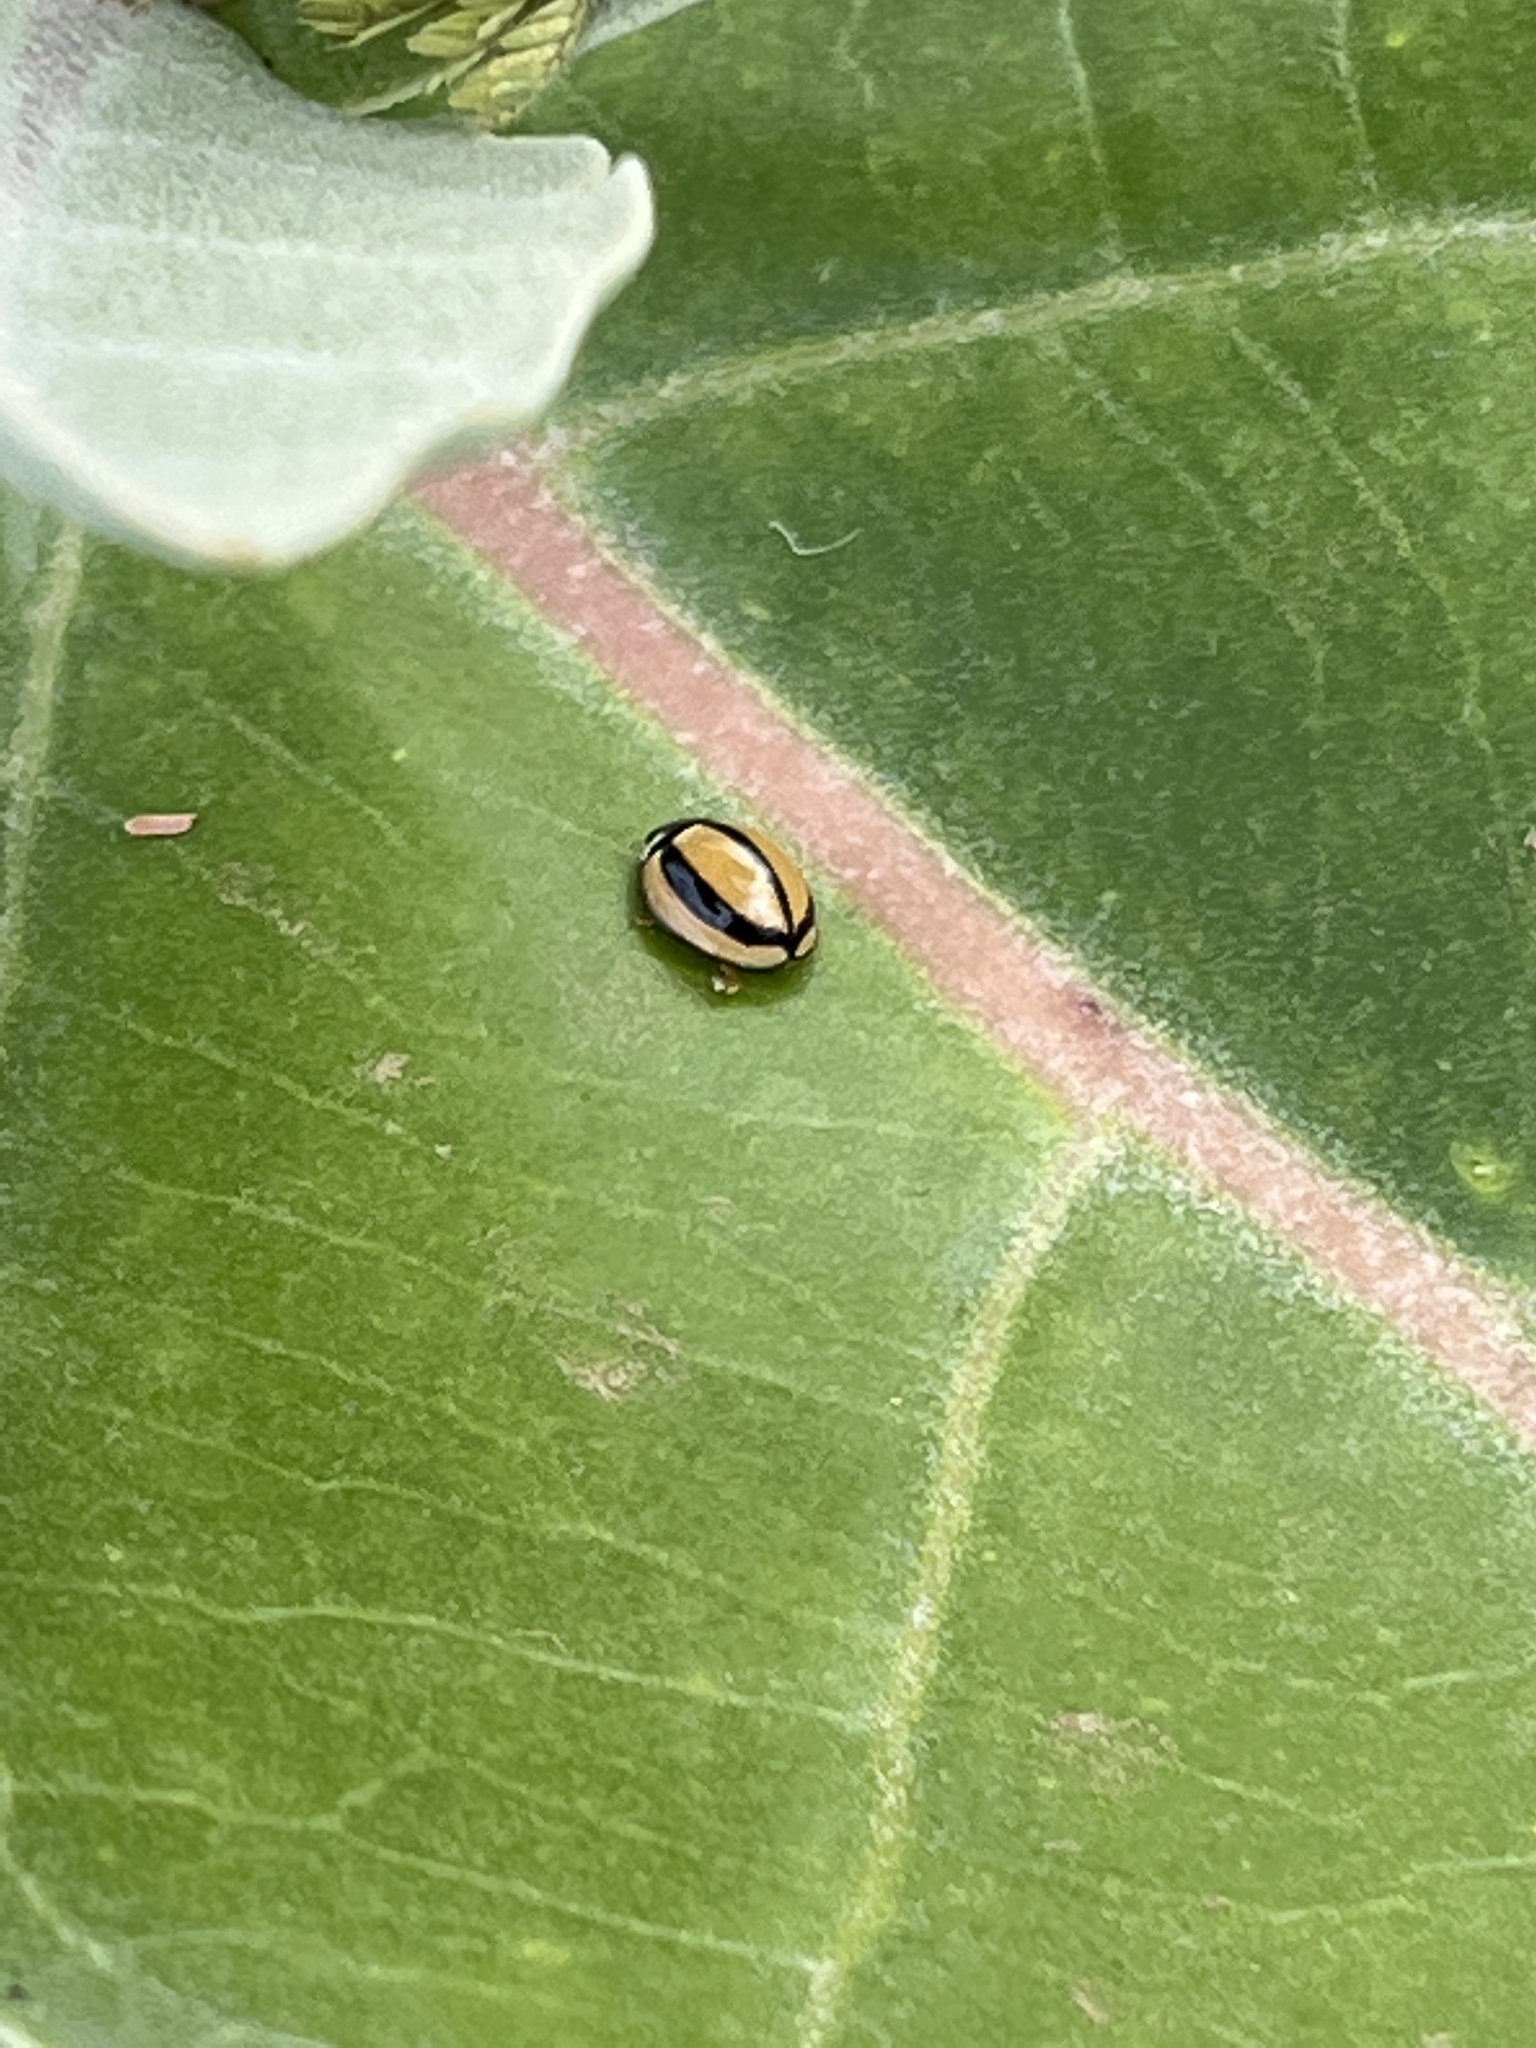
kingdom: Animalia
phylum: Arthropoda
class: Insecta
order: Coleoptera
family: Coccinellidae
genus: Cheilomenes
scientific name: Cheilomenes propinqua
